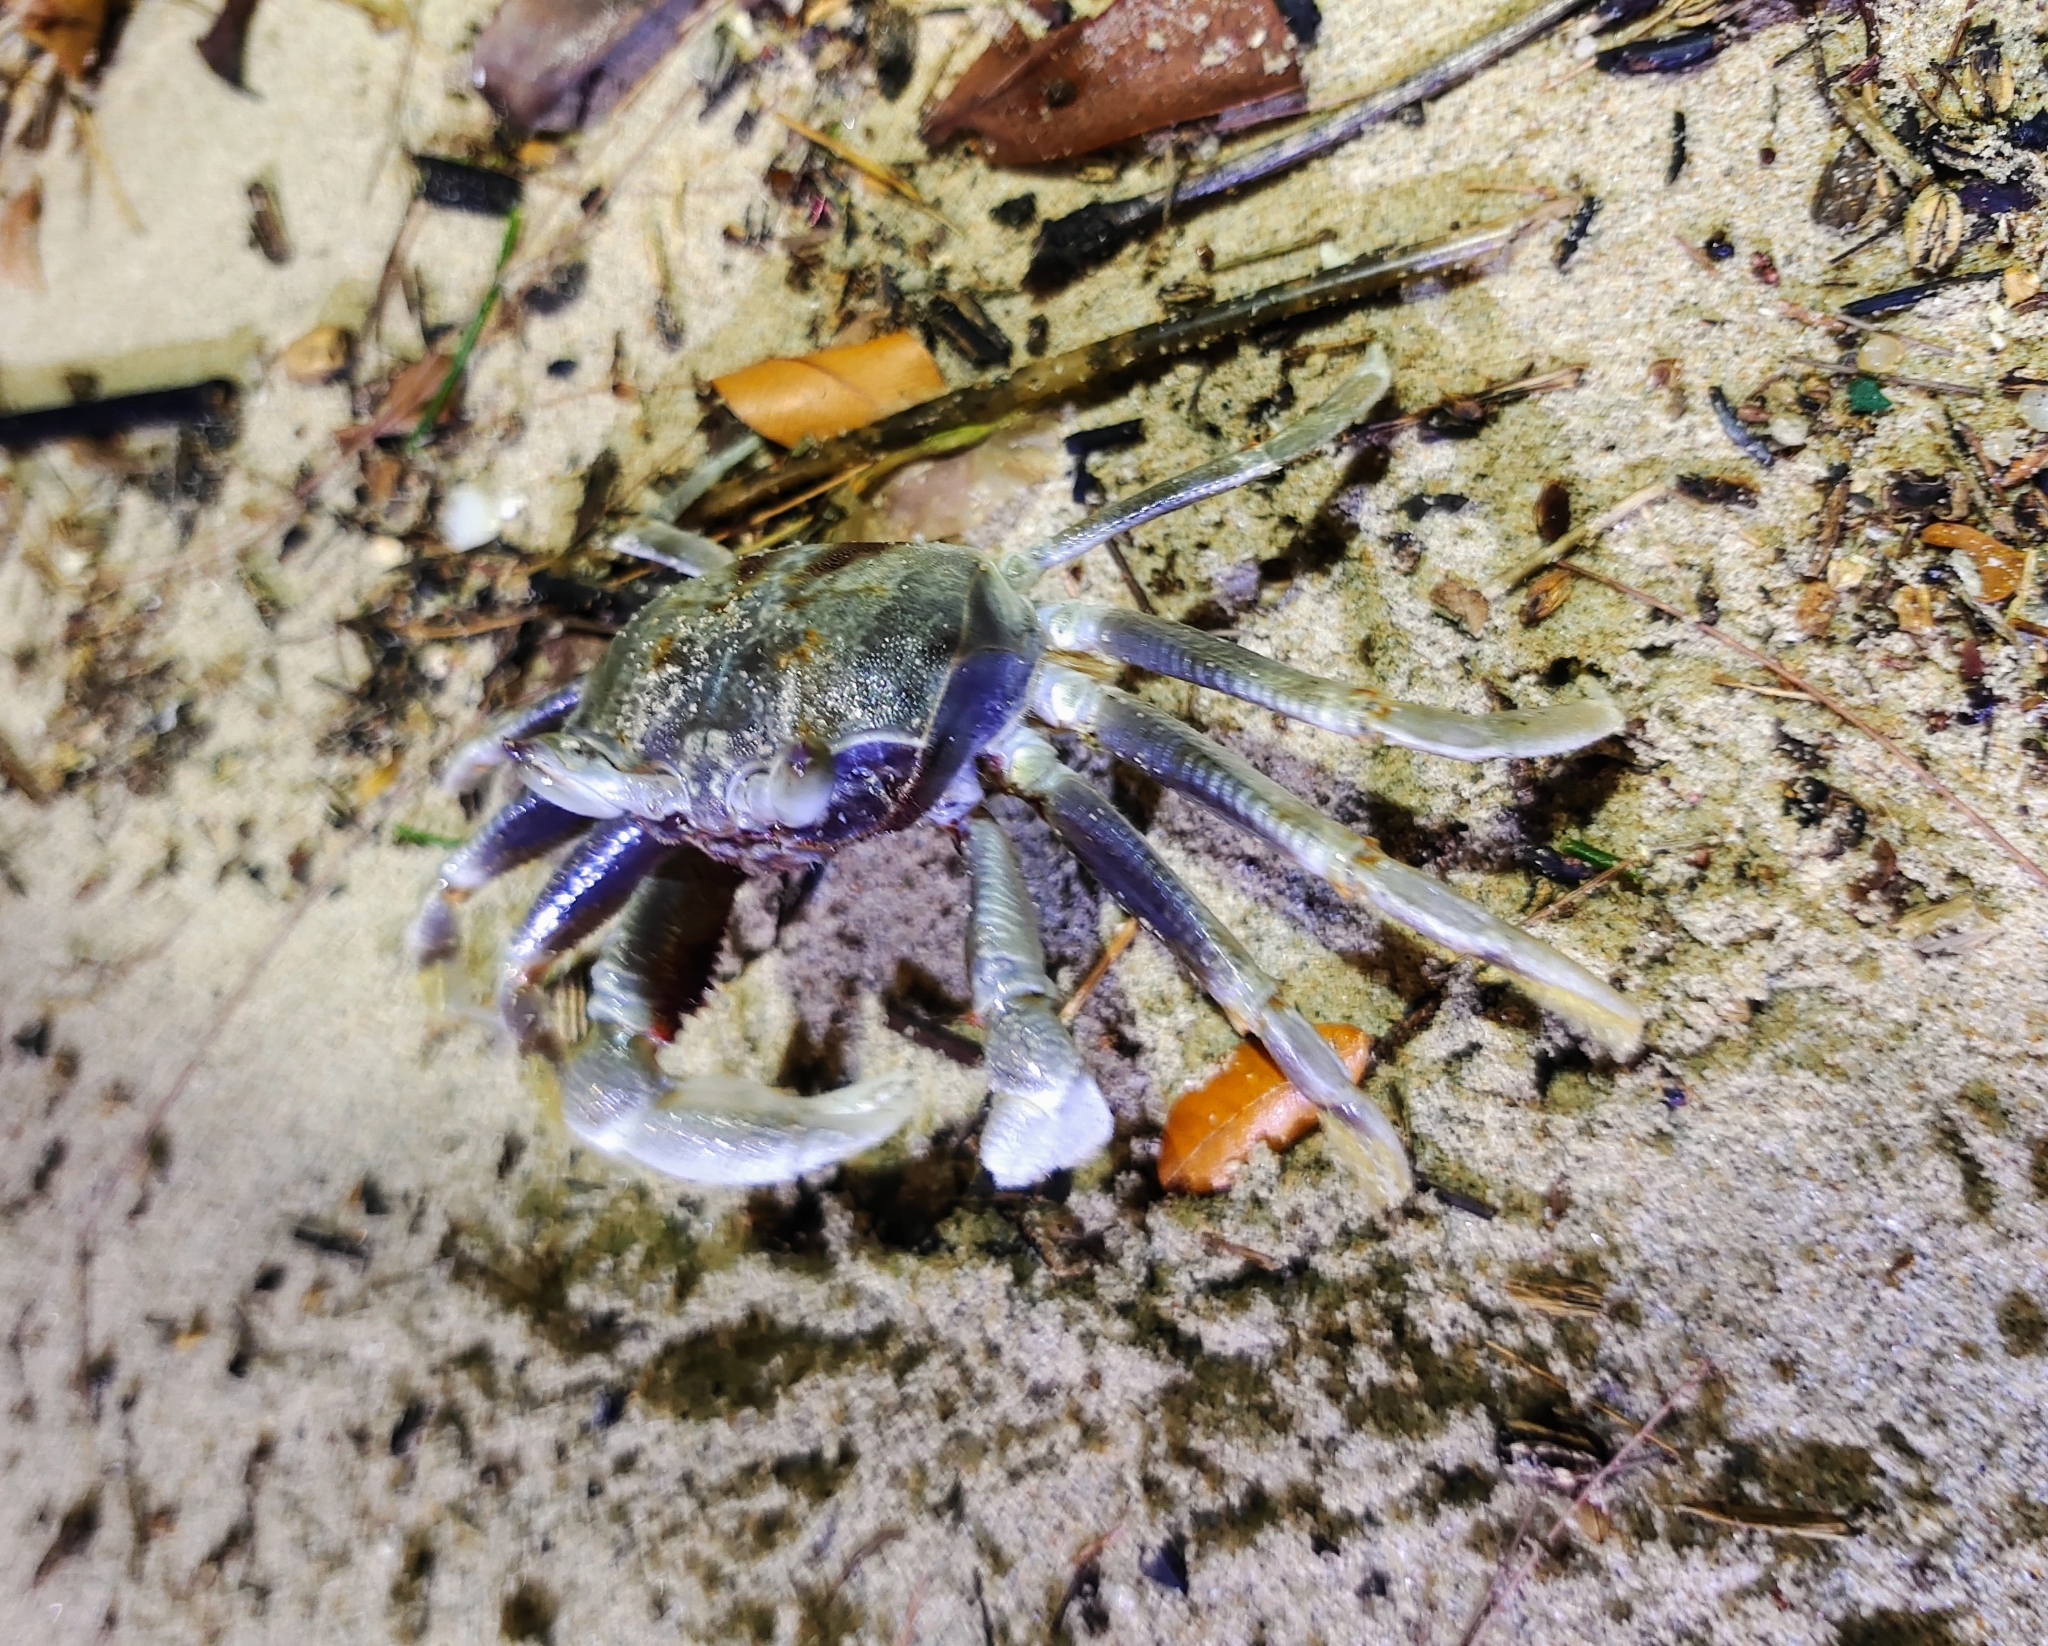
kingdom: Animalia
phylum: Arthropoda
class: Malacostraca
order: Decapoda
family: Ocypodidae
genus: Ocypode
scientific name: Ocypode ceratophthalmus
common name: Indo-pacific ghost crab
